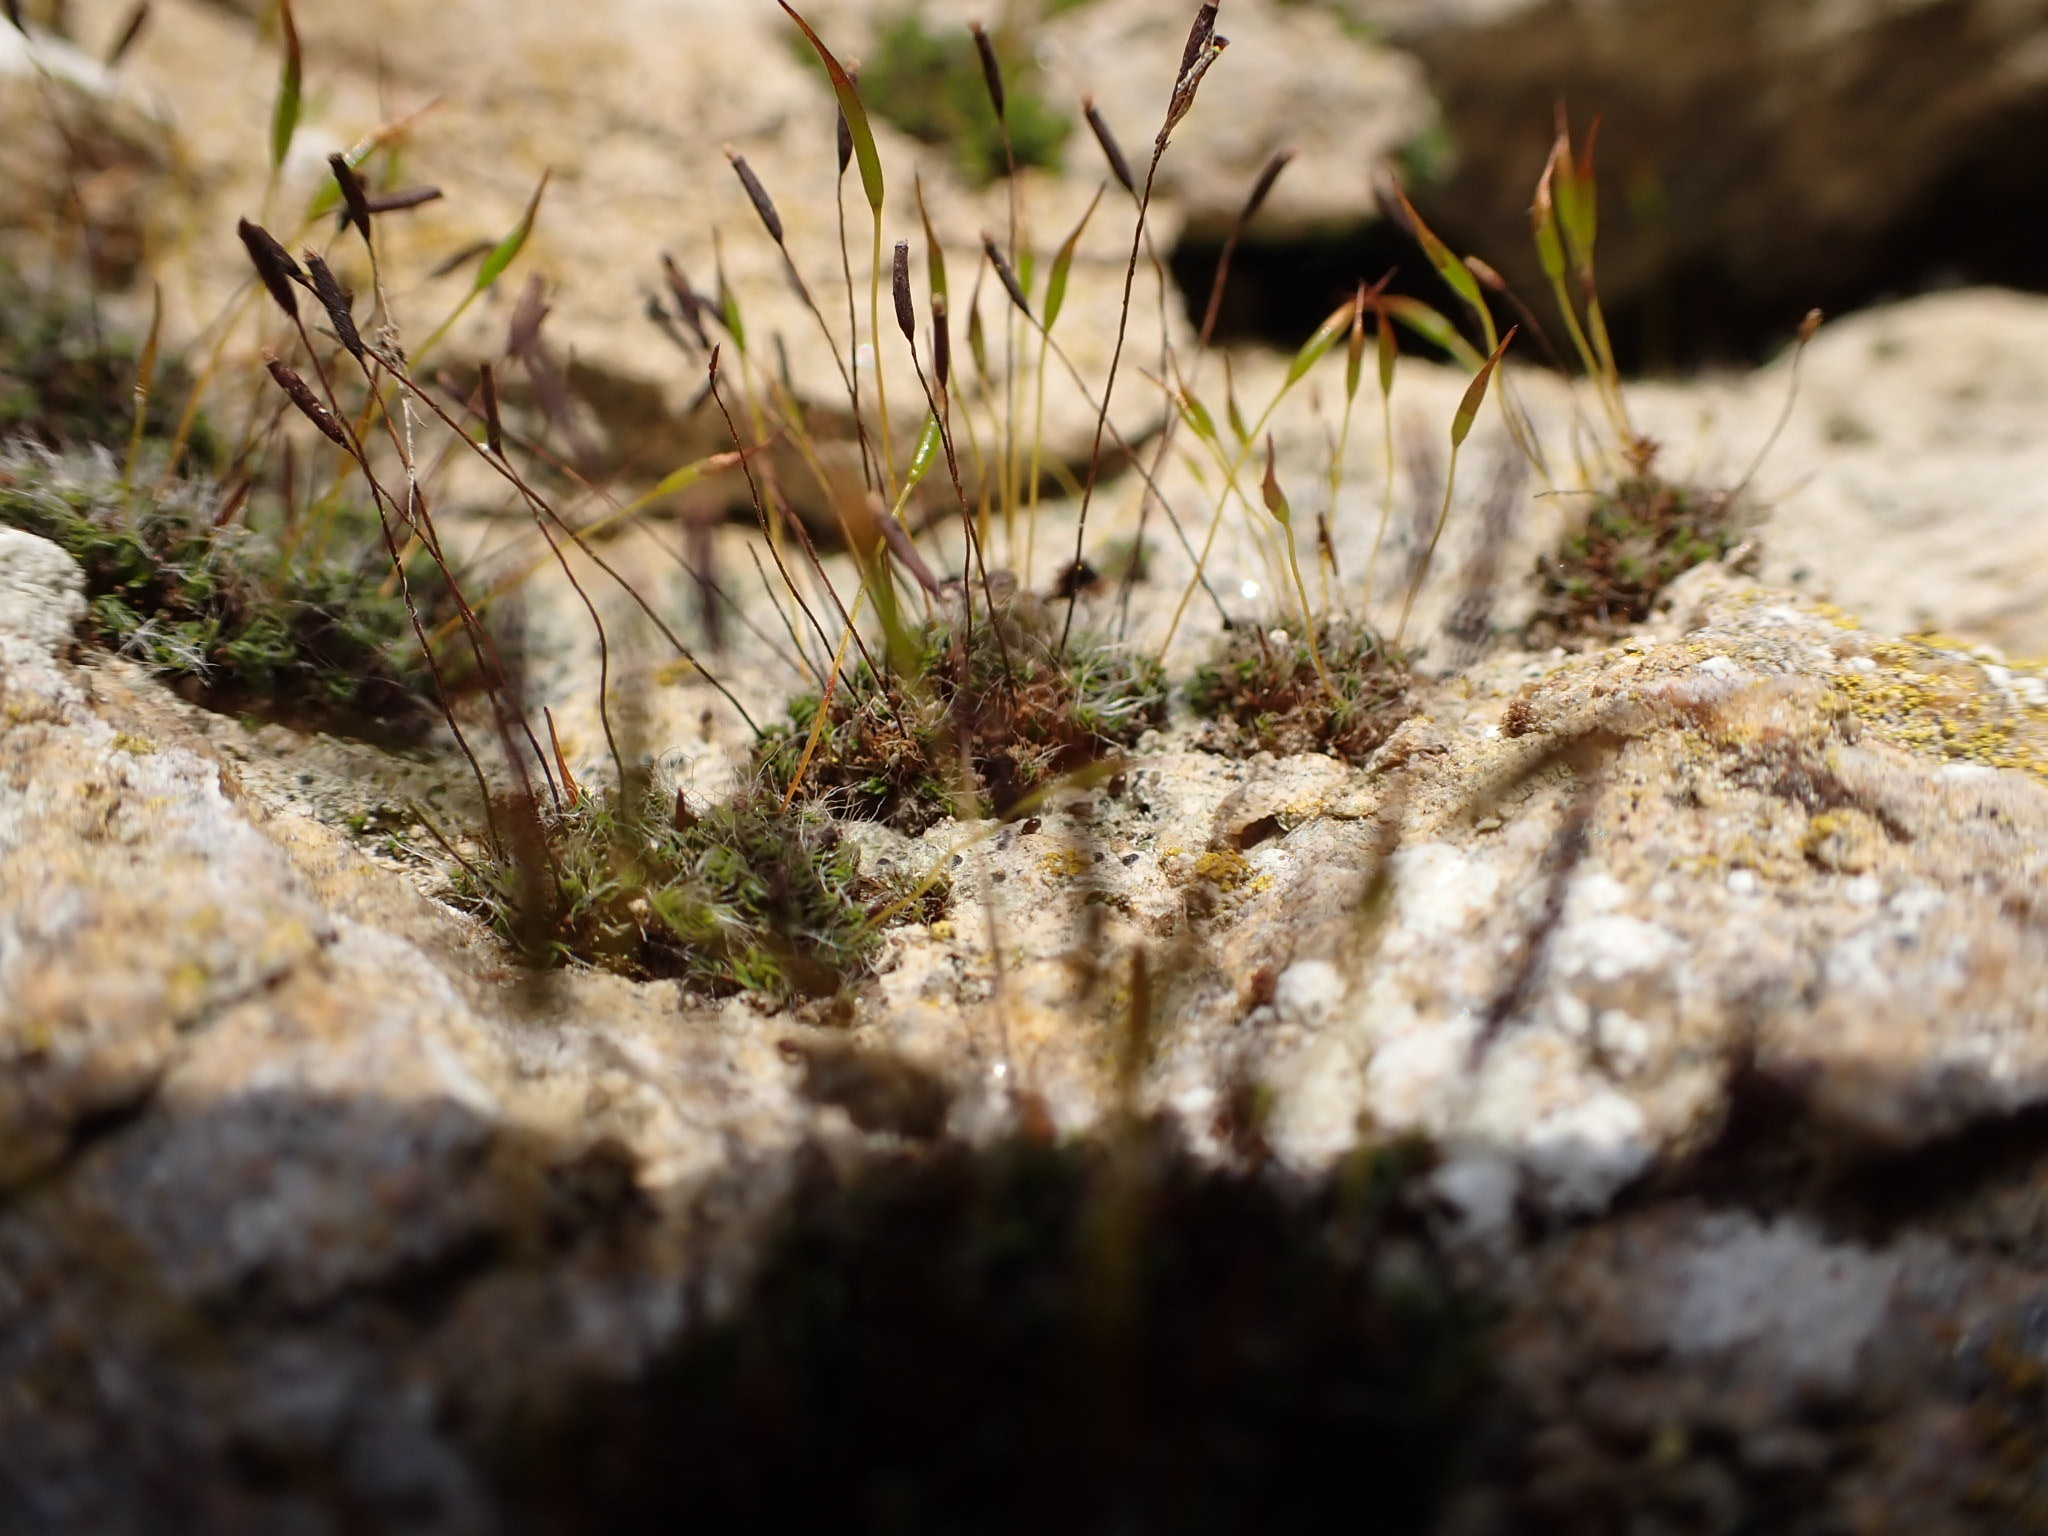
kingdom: Plantae
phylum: Bryophyta
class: Bryopsida
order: Pottiales
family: Pottiaceae
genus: Tortula
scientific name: Tortula muralis
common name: Wall screw-moss
